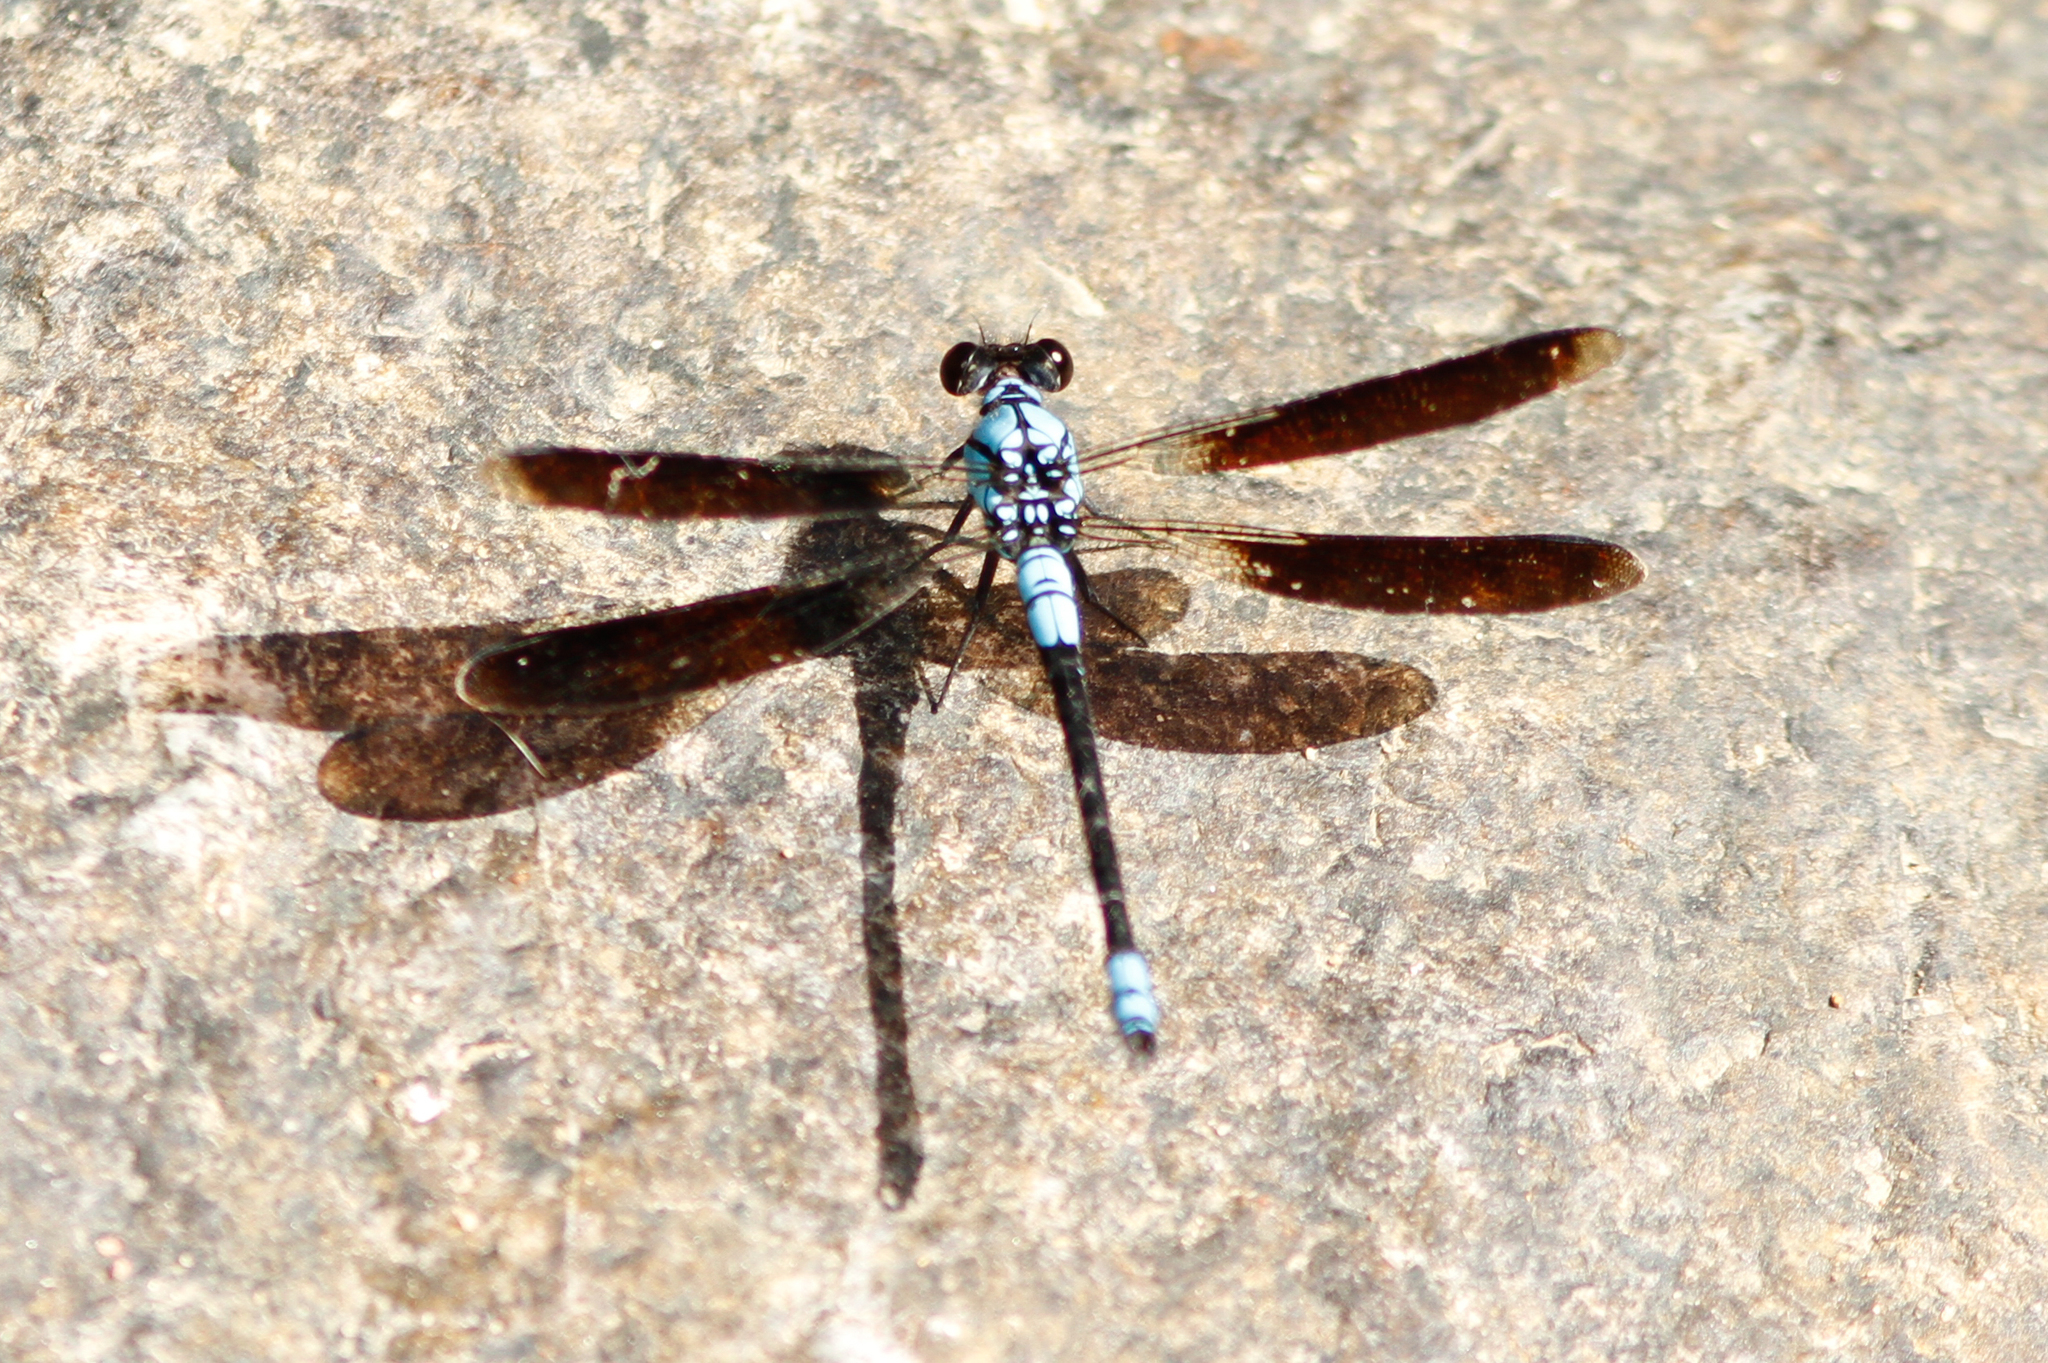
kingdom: Animalia
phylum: Arthropoda
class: Insecta
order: Odonata
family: Lestoideidae
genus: Diphlebia
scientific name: Diphlebia euphoeoides
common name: Tropical rockmaster
